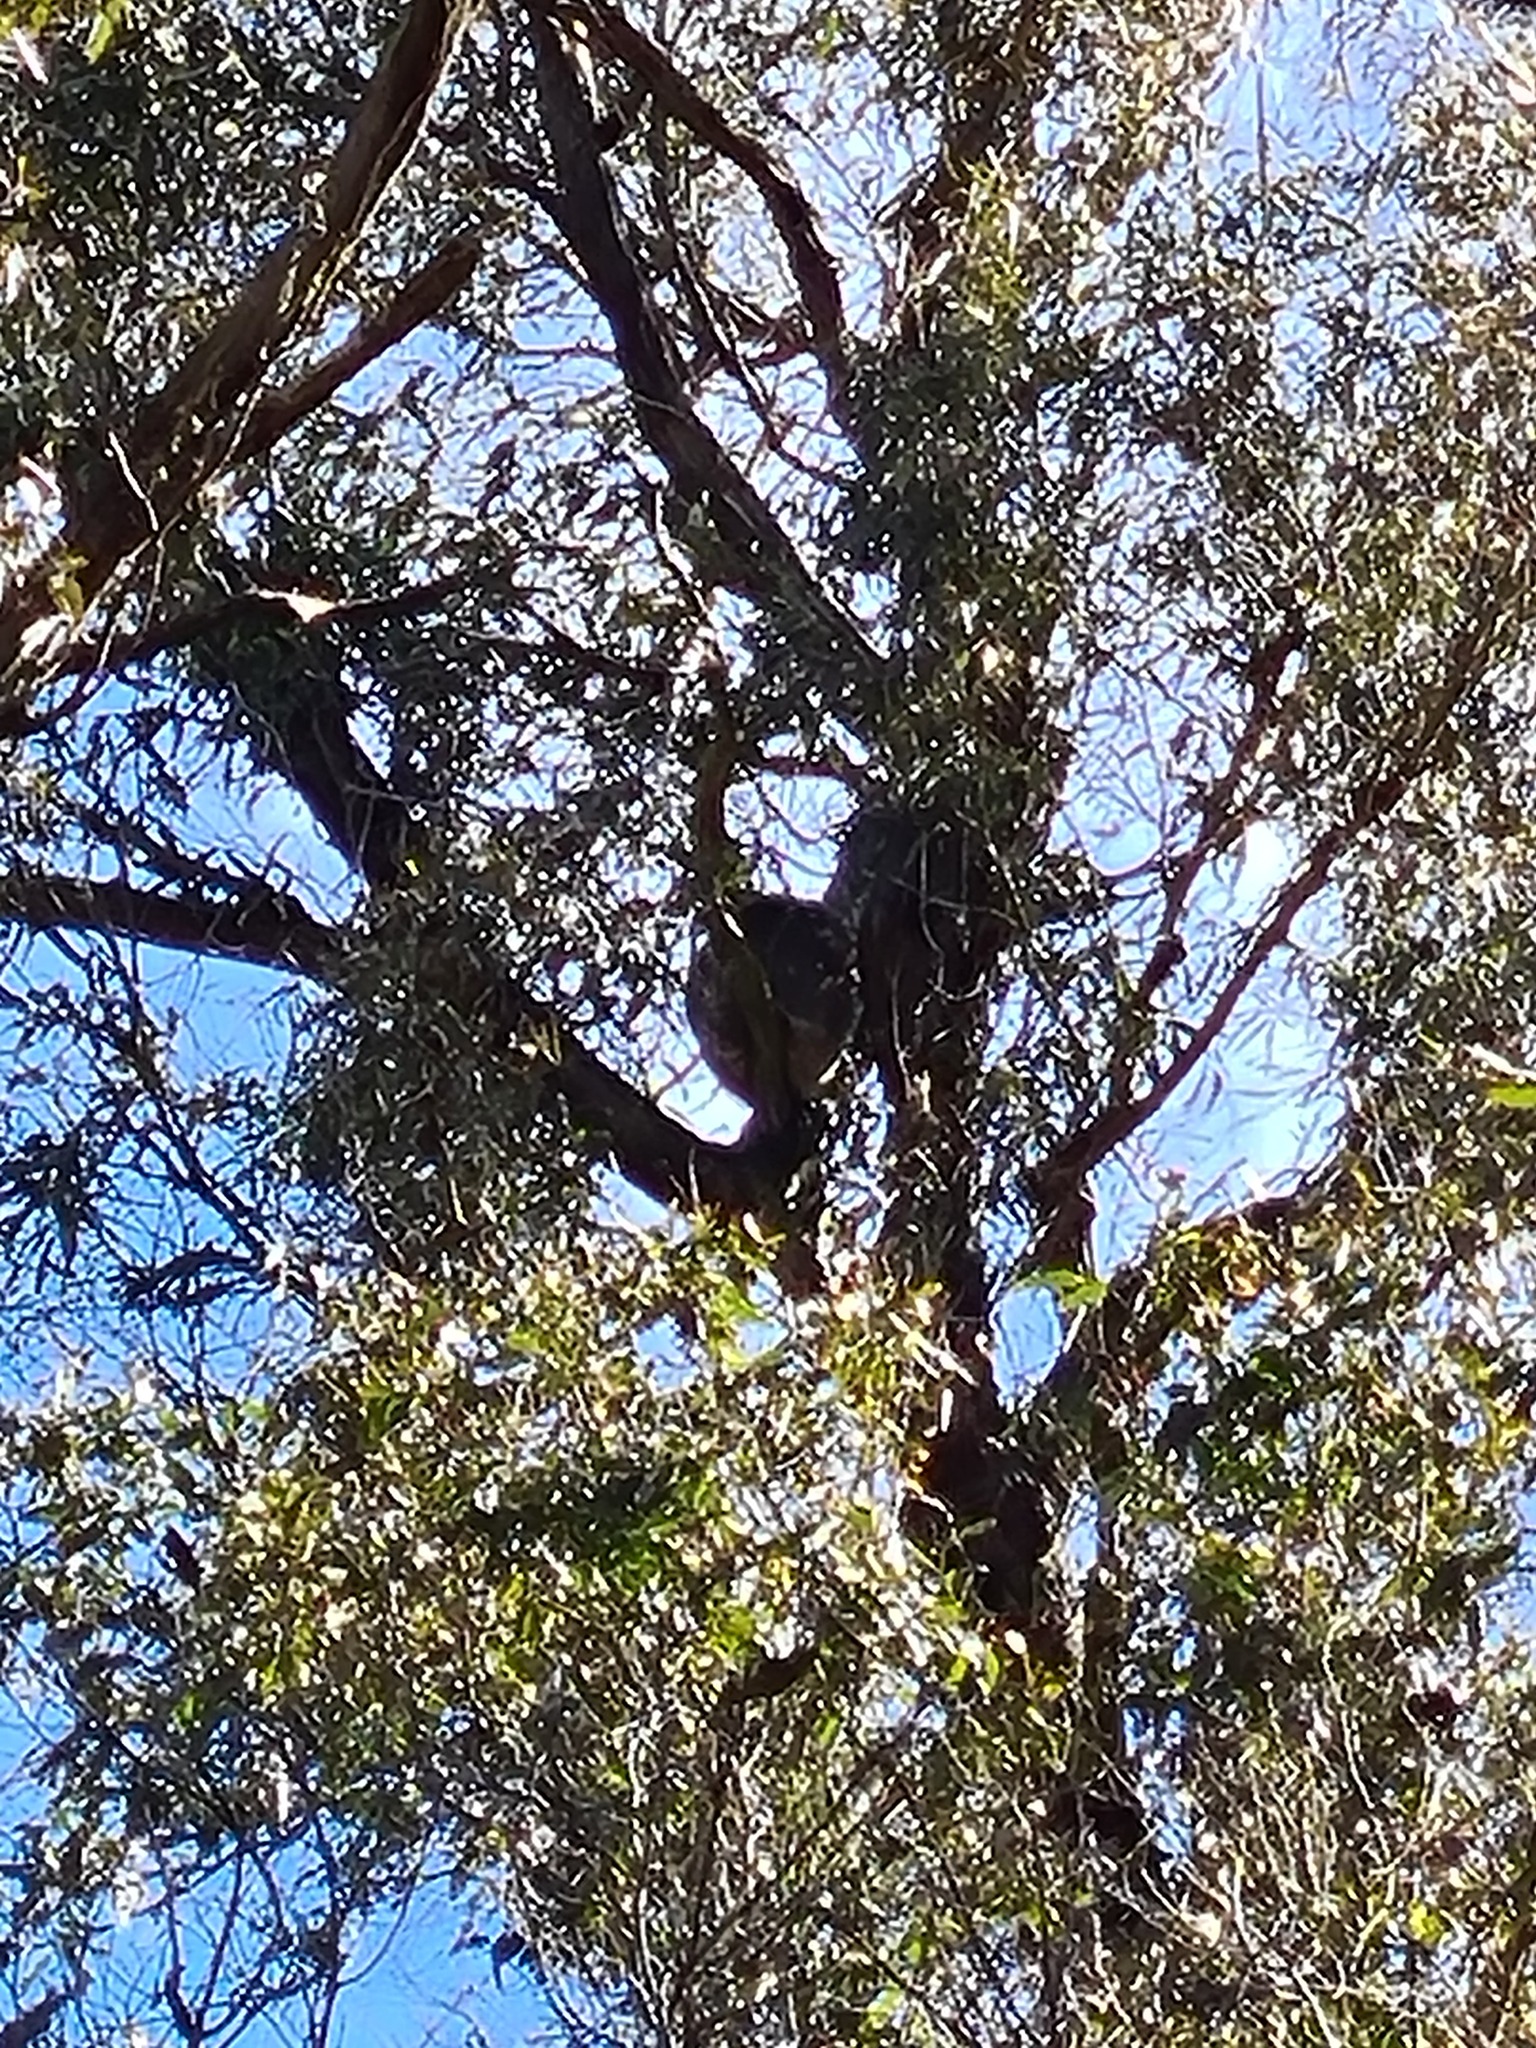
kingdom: Animalia
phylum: Chordata
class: Mammalia
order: Diprotodontia
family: Phascolarctidae
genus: Phascolarctos
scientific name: Phascolarctos cinereus
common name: Koala
